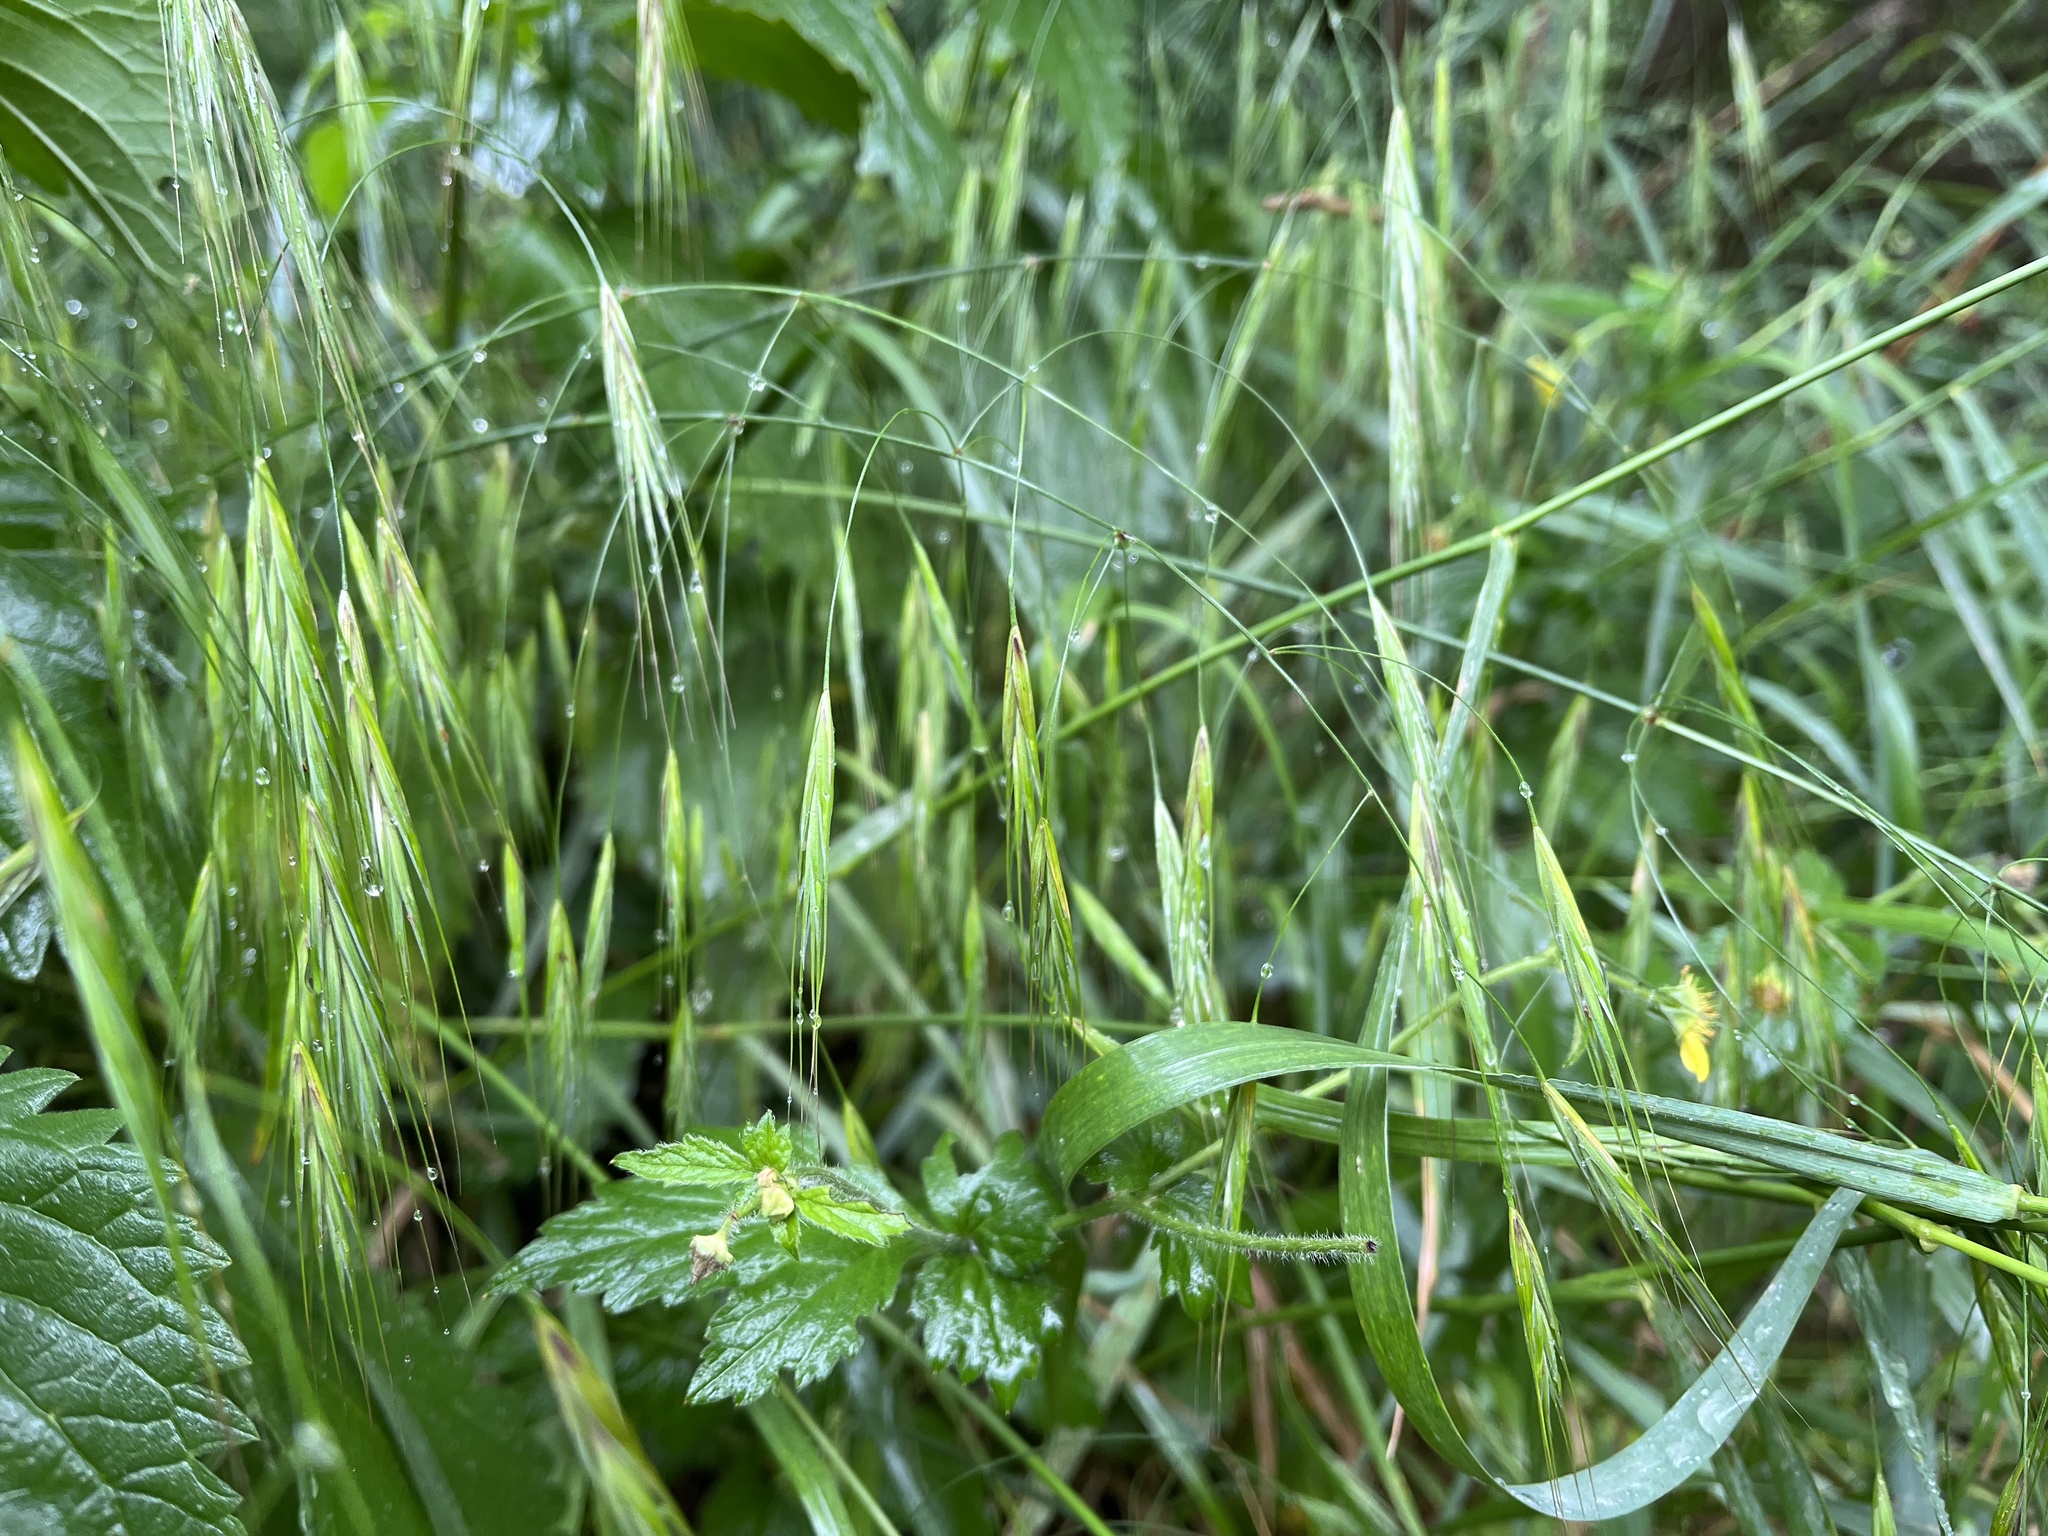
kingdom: Plantae
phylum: Tracheophyta
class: Liliopsida
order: Poales
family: Poaceae
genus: Bromus
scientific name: Bromus sterilis
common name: Poverty brome
